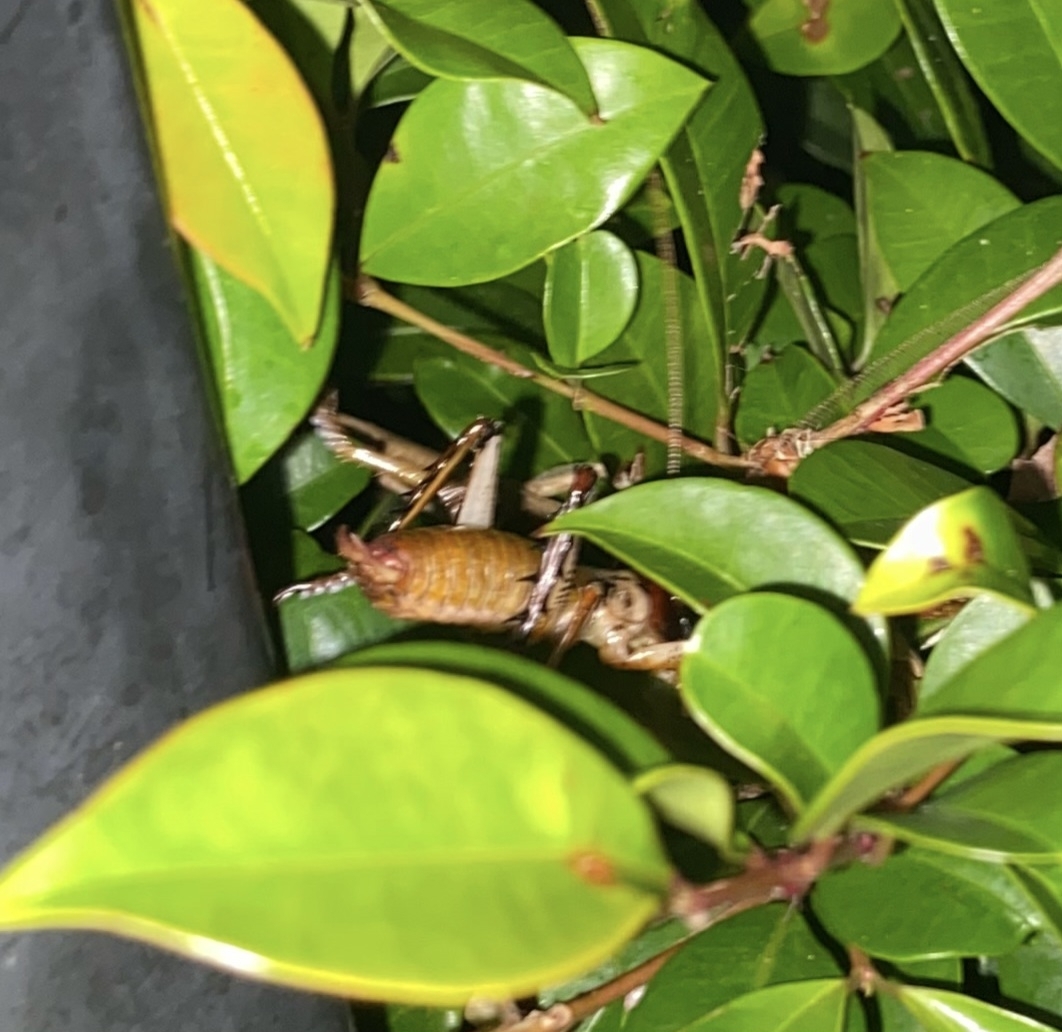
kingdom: Animalia
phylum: Arthropoda
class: Insecta
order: Orthoptera
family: Anostostomatidae
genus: Hemideina
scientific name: Hemideina thoracica
